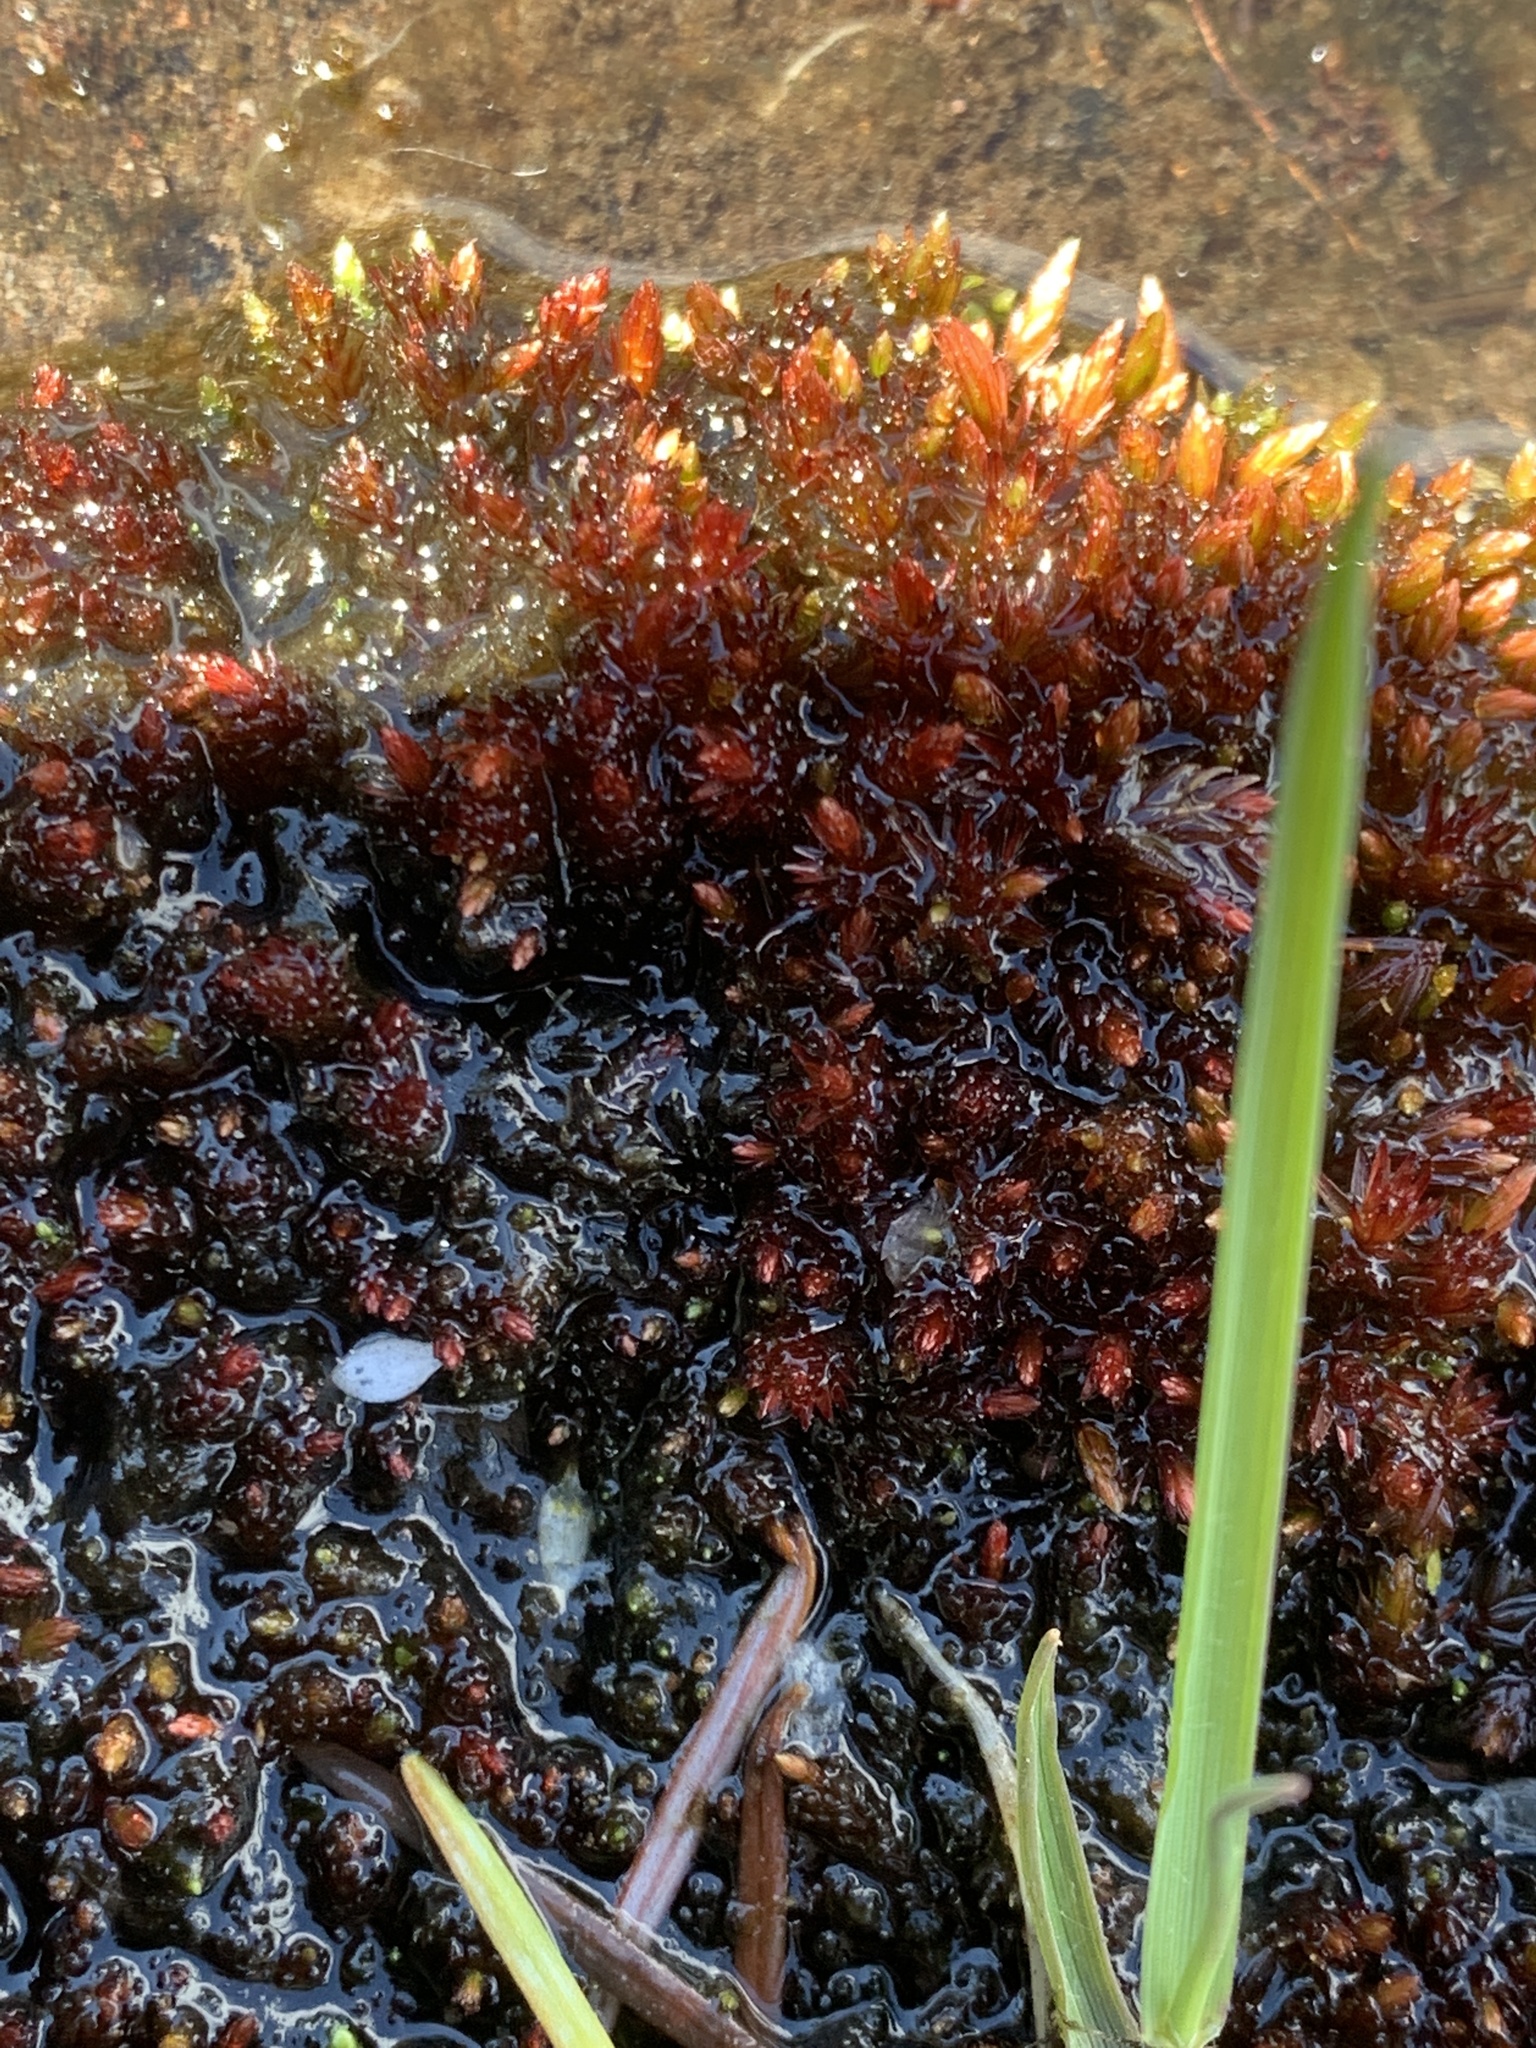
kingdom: Plantae
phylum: Bryophyta
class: Bryopsida
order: Bryales
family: Bryaceae
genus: Imbribryum
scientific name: Imbribryum miniatum
